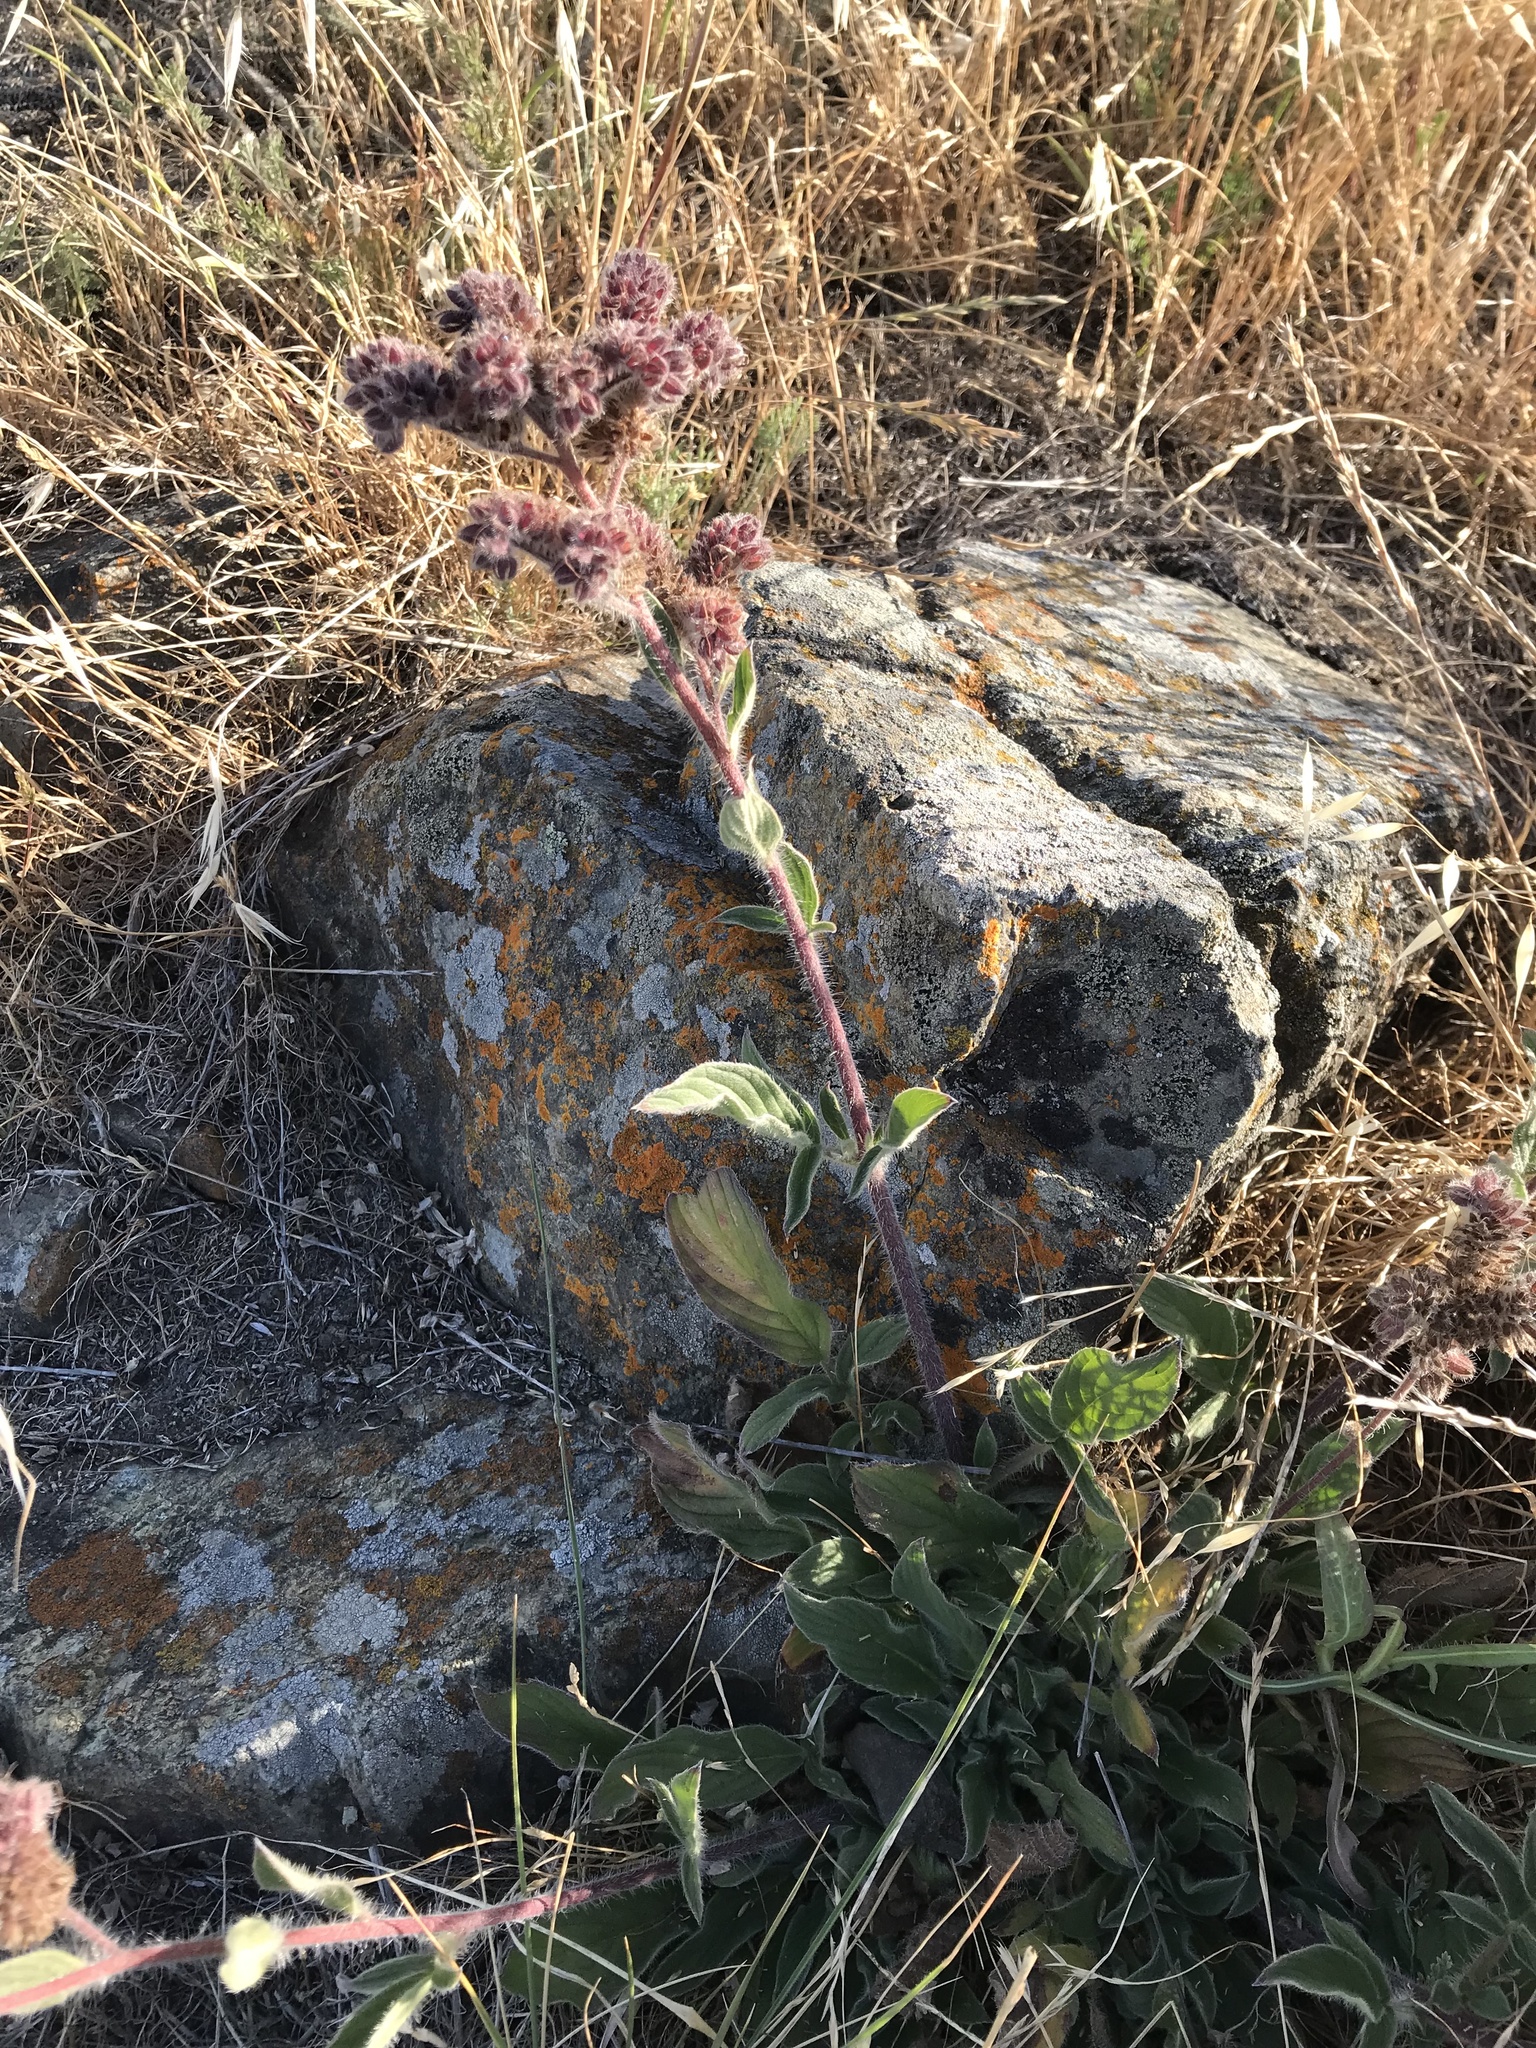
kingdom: Plantae
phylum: Tracheophyta
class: Magnoliopsida
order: Boraginales
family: Hydrophyllaceae
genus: Phacelia
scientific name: Phacelia californica
